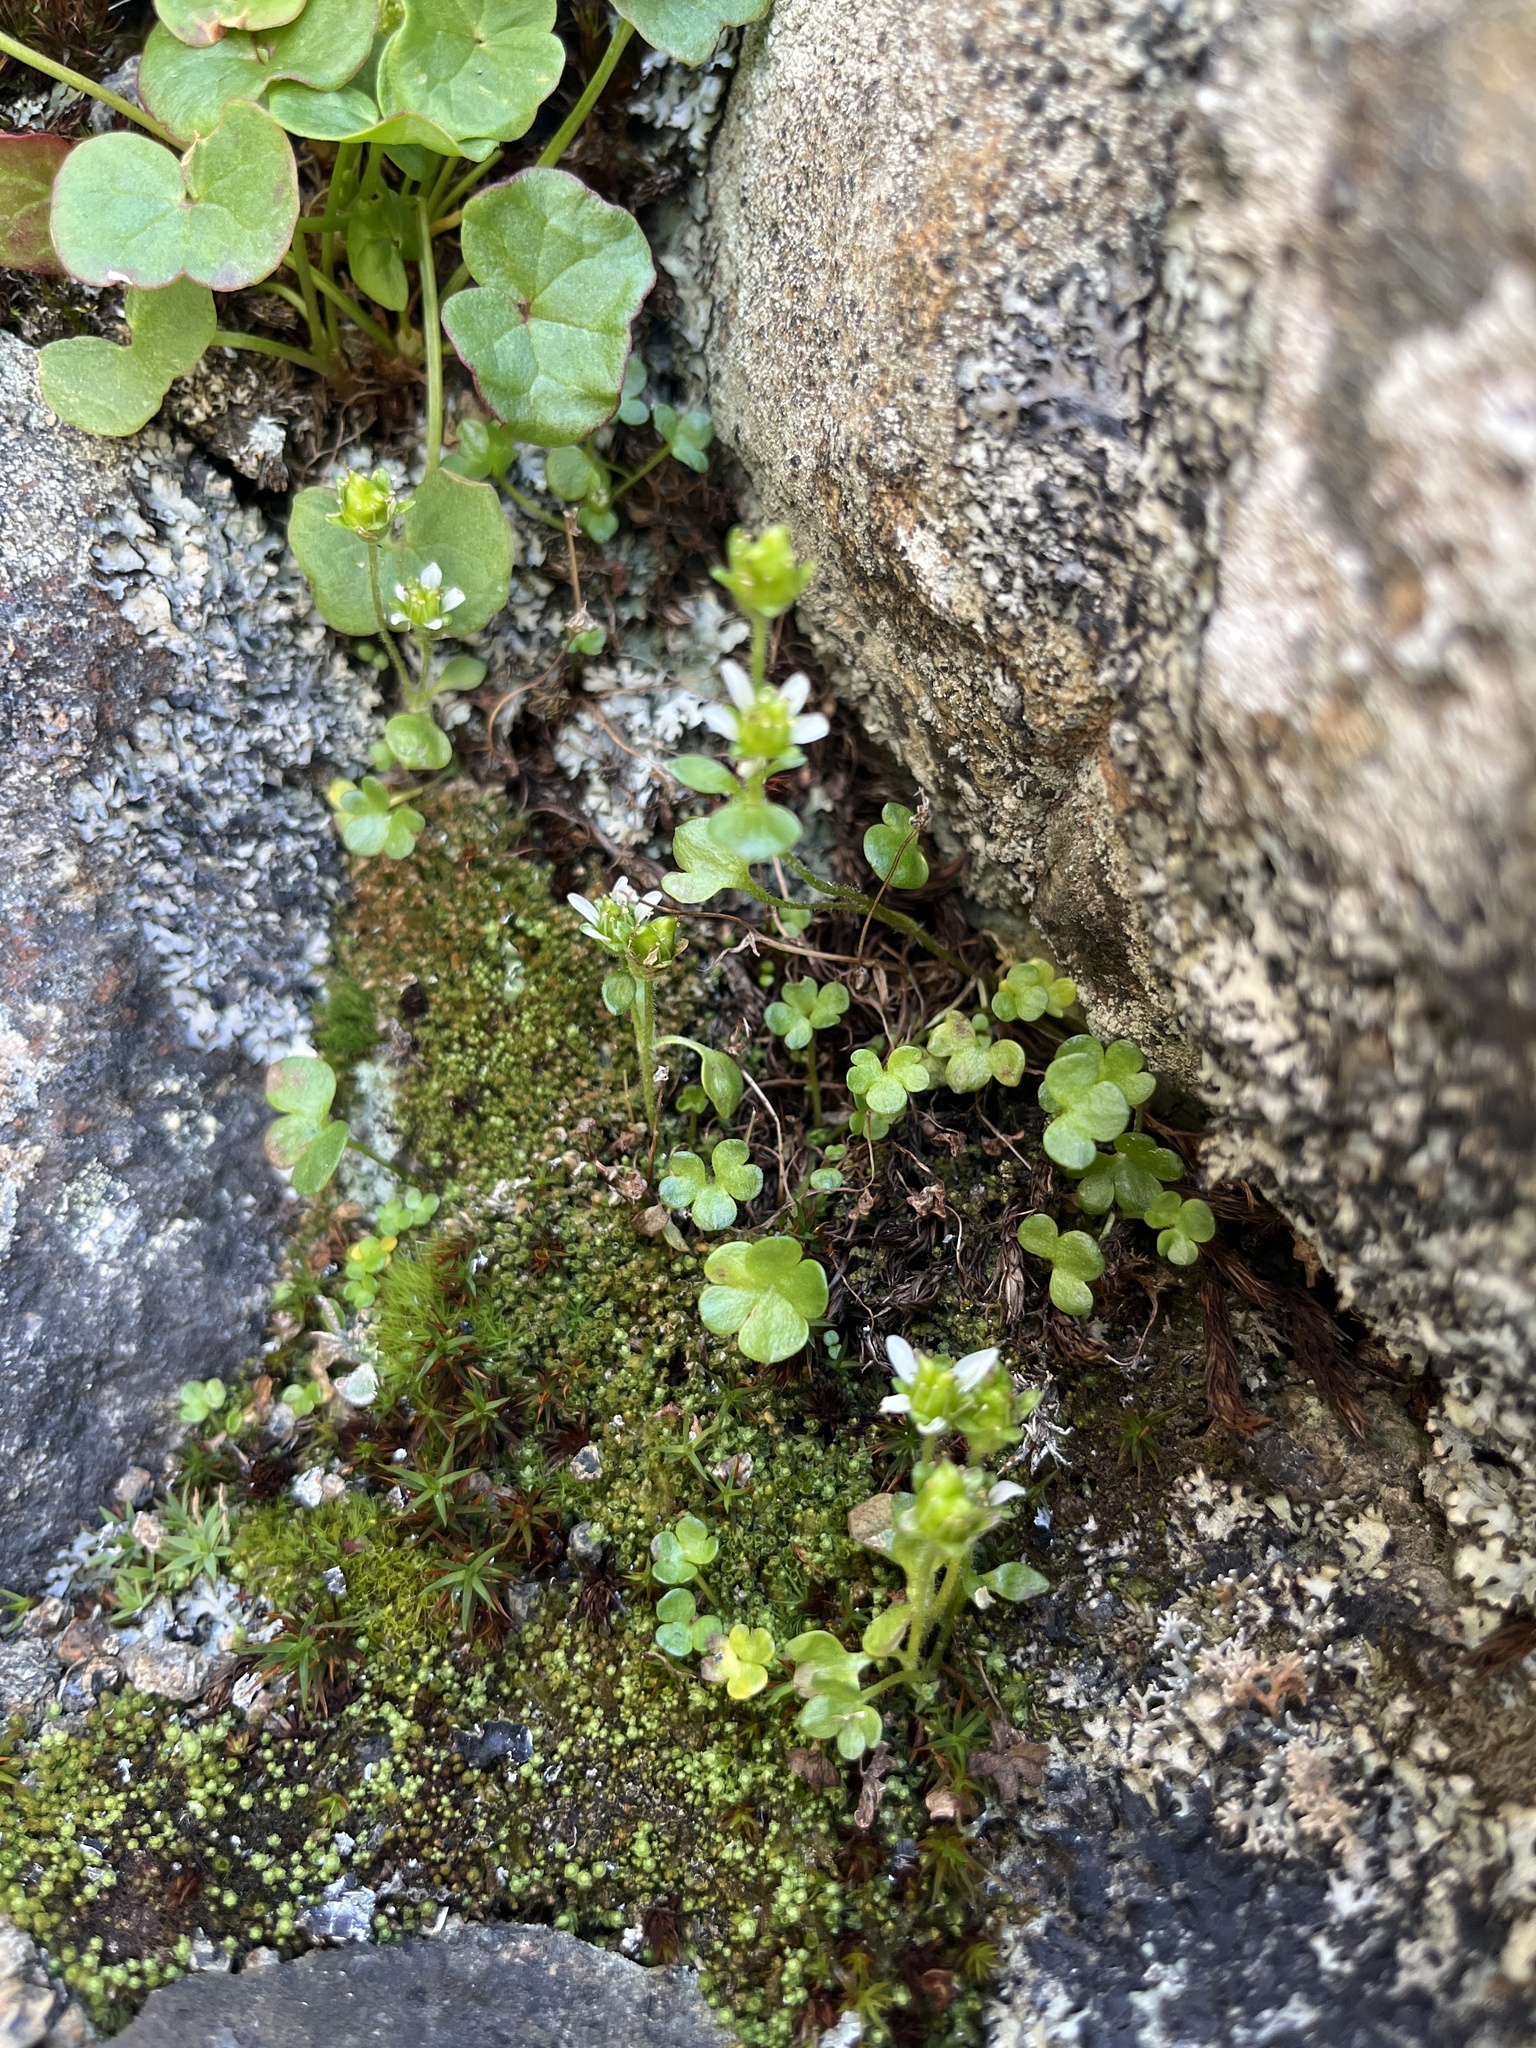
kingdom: Plantae
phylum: Tracheophyta
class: Magnoliopsida
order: Saxifragales
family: Saxifragaceae
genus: Saxifraga
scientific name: Saxifraga rivularis
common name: Highland saxifrage
